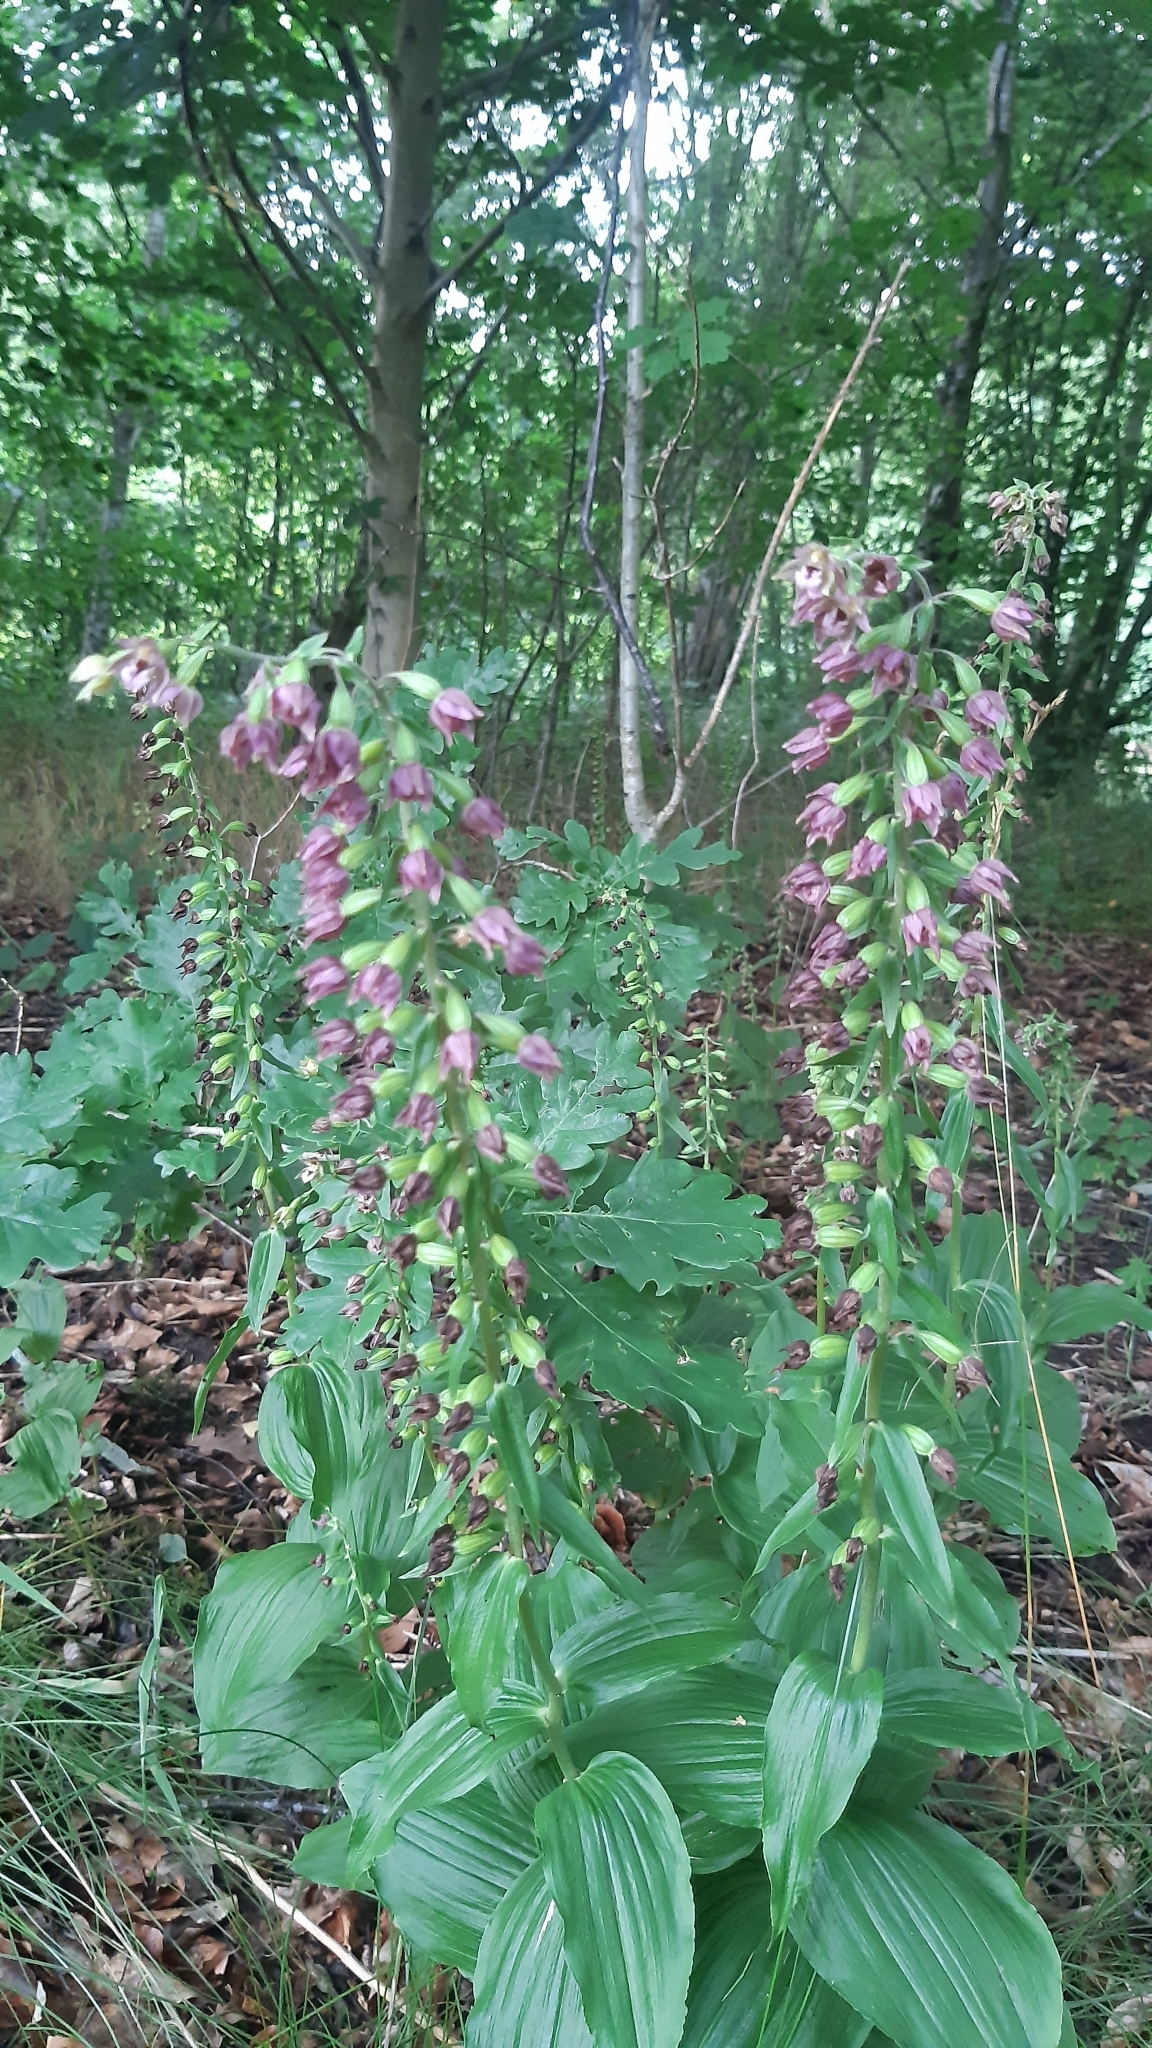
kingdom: Plantae
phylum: Tracheophyta
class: Liliopsida
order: Asparagales
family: Orchidaceae
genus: Epipactis
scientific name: Epipactis helleborine
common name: Broad-leaved helleborine
